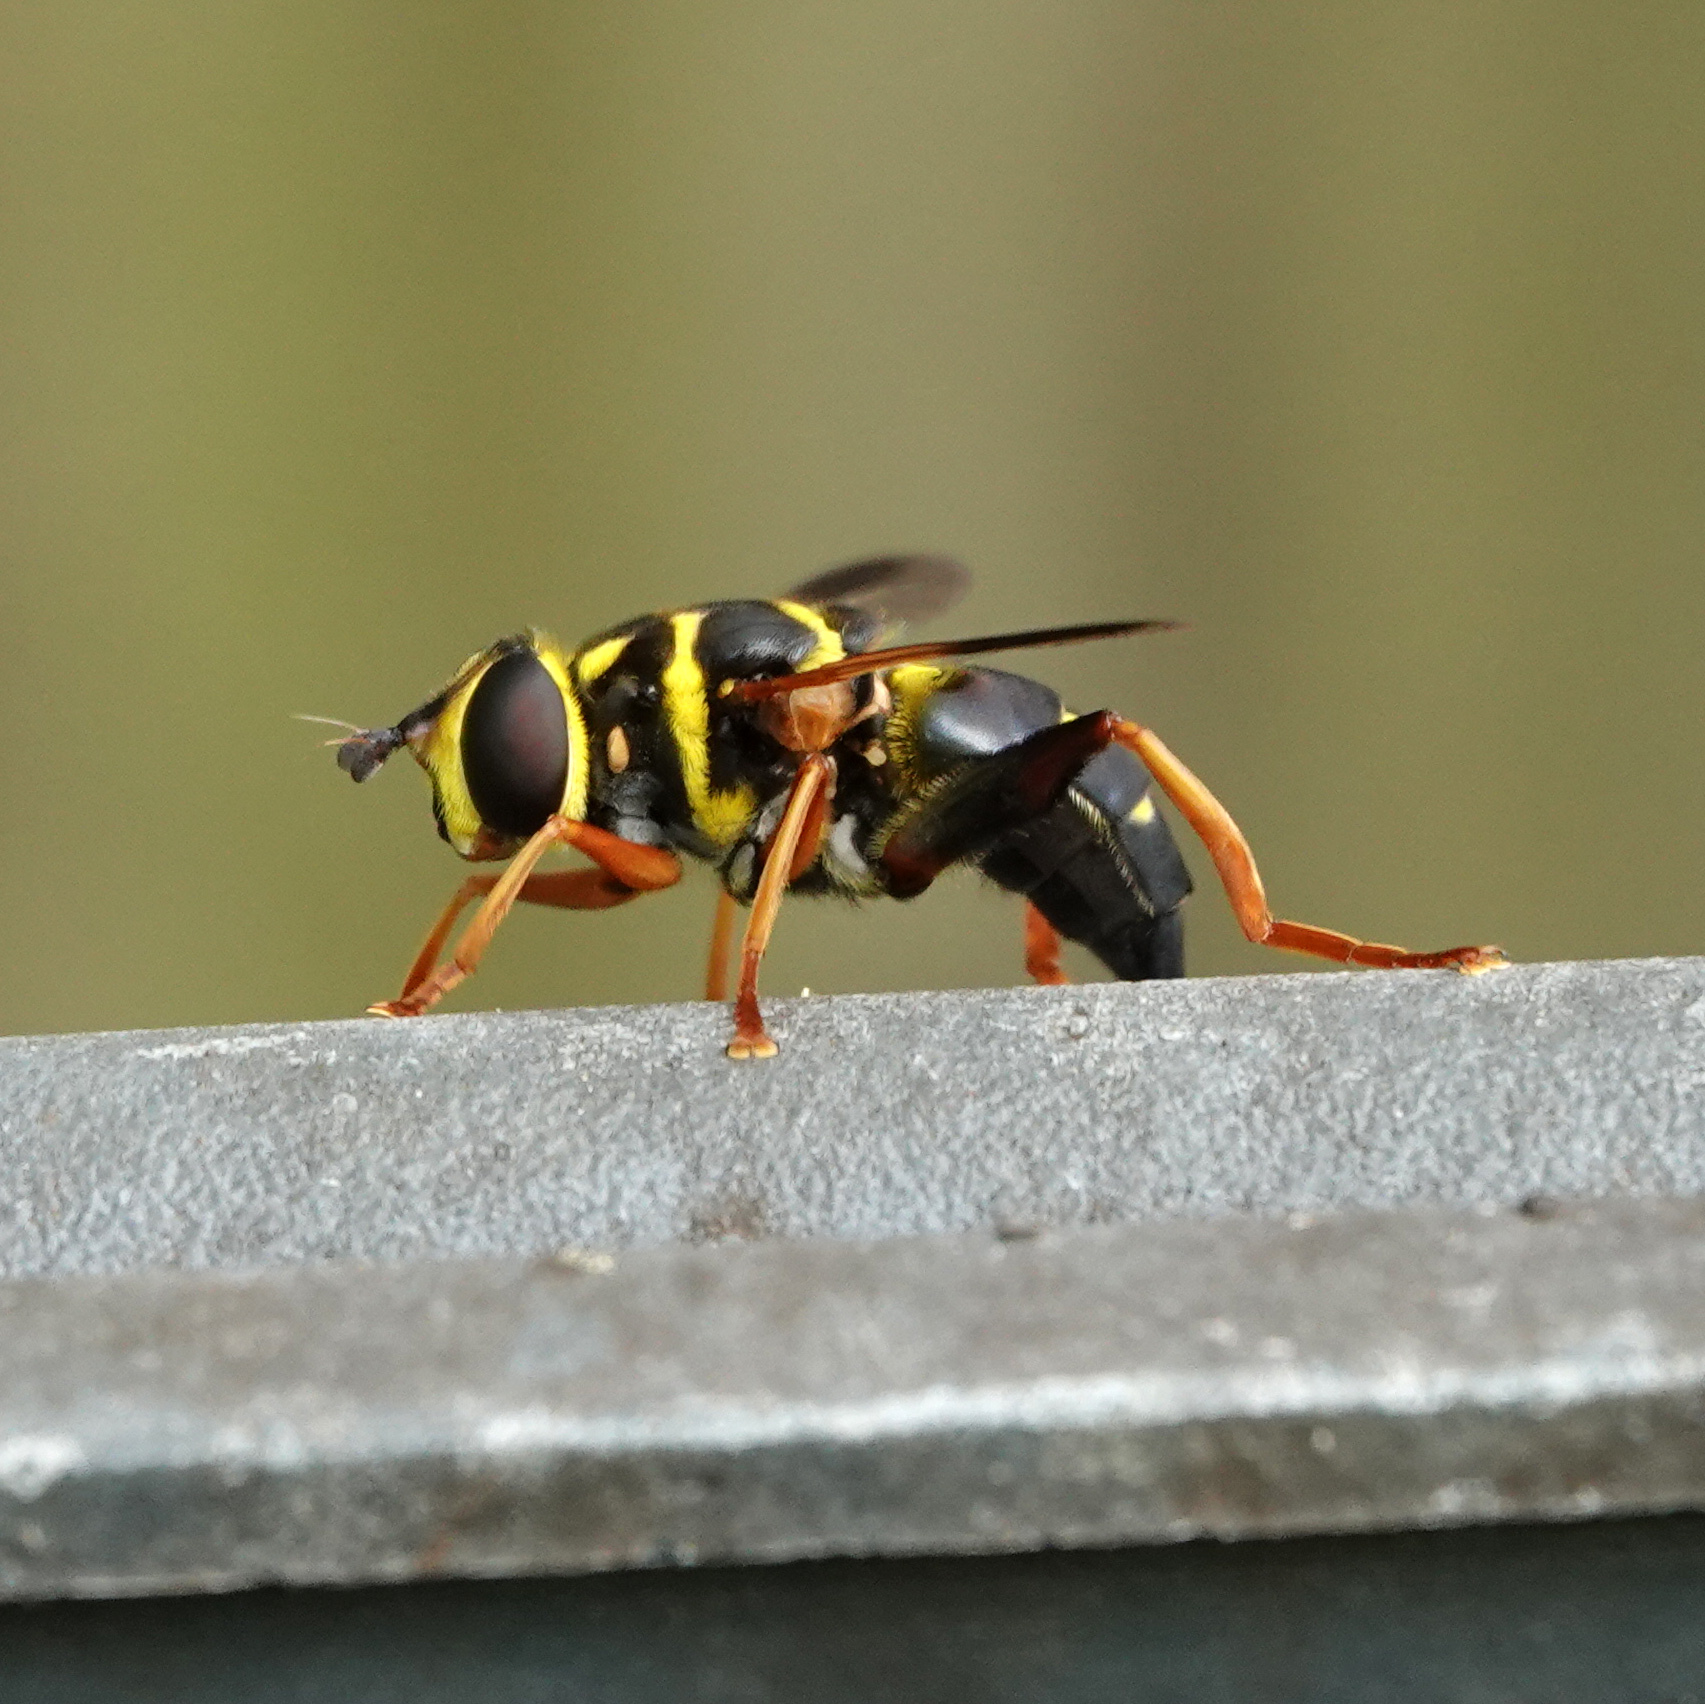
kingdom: Animalia
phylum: Arthropoda
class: Insecta
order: Diptera
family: Syrphidae
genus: Meromacrus
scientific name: Meromacrus acutus
